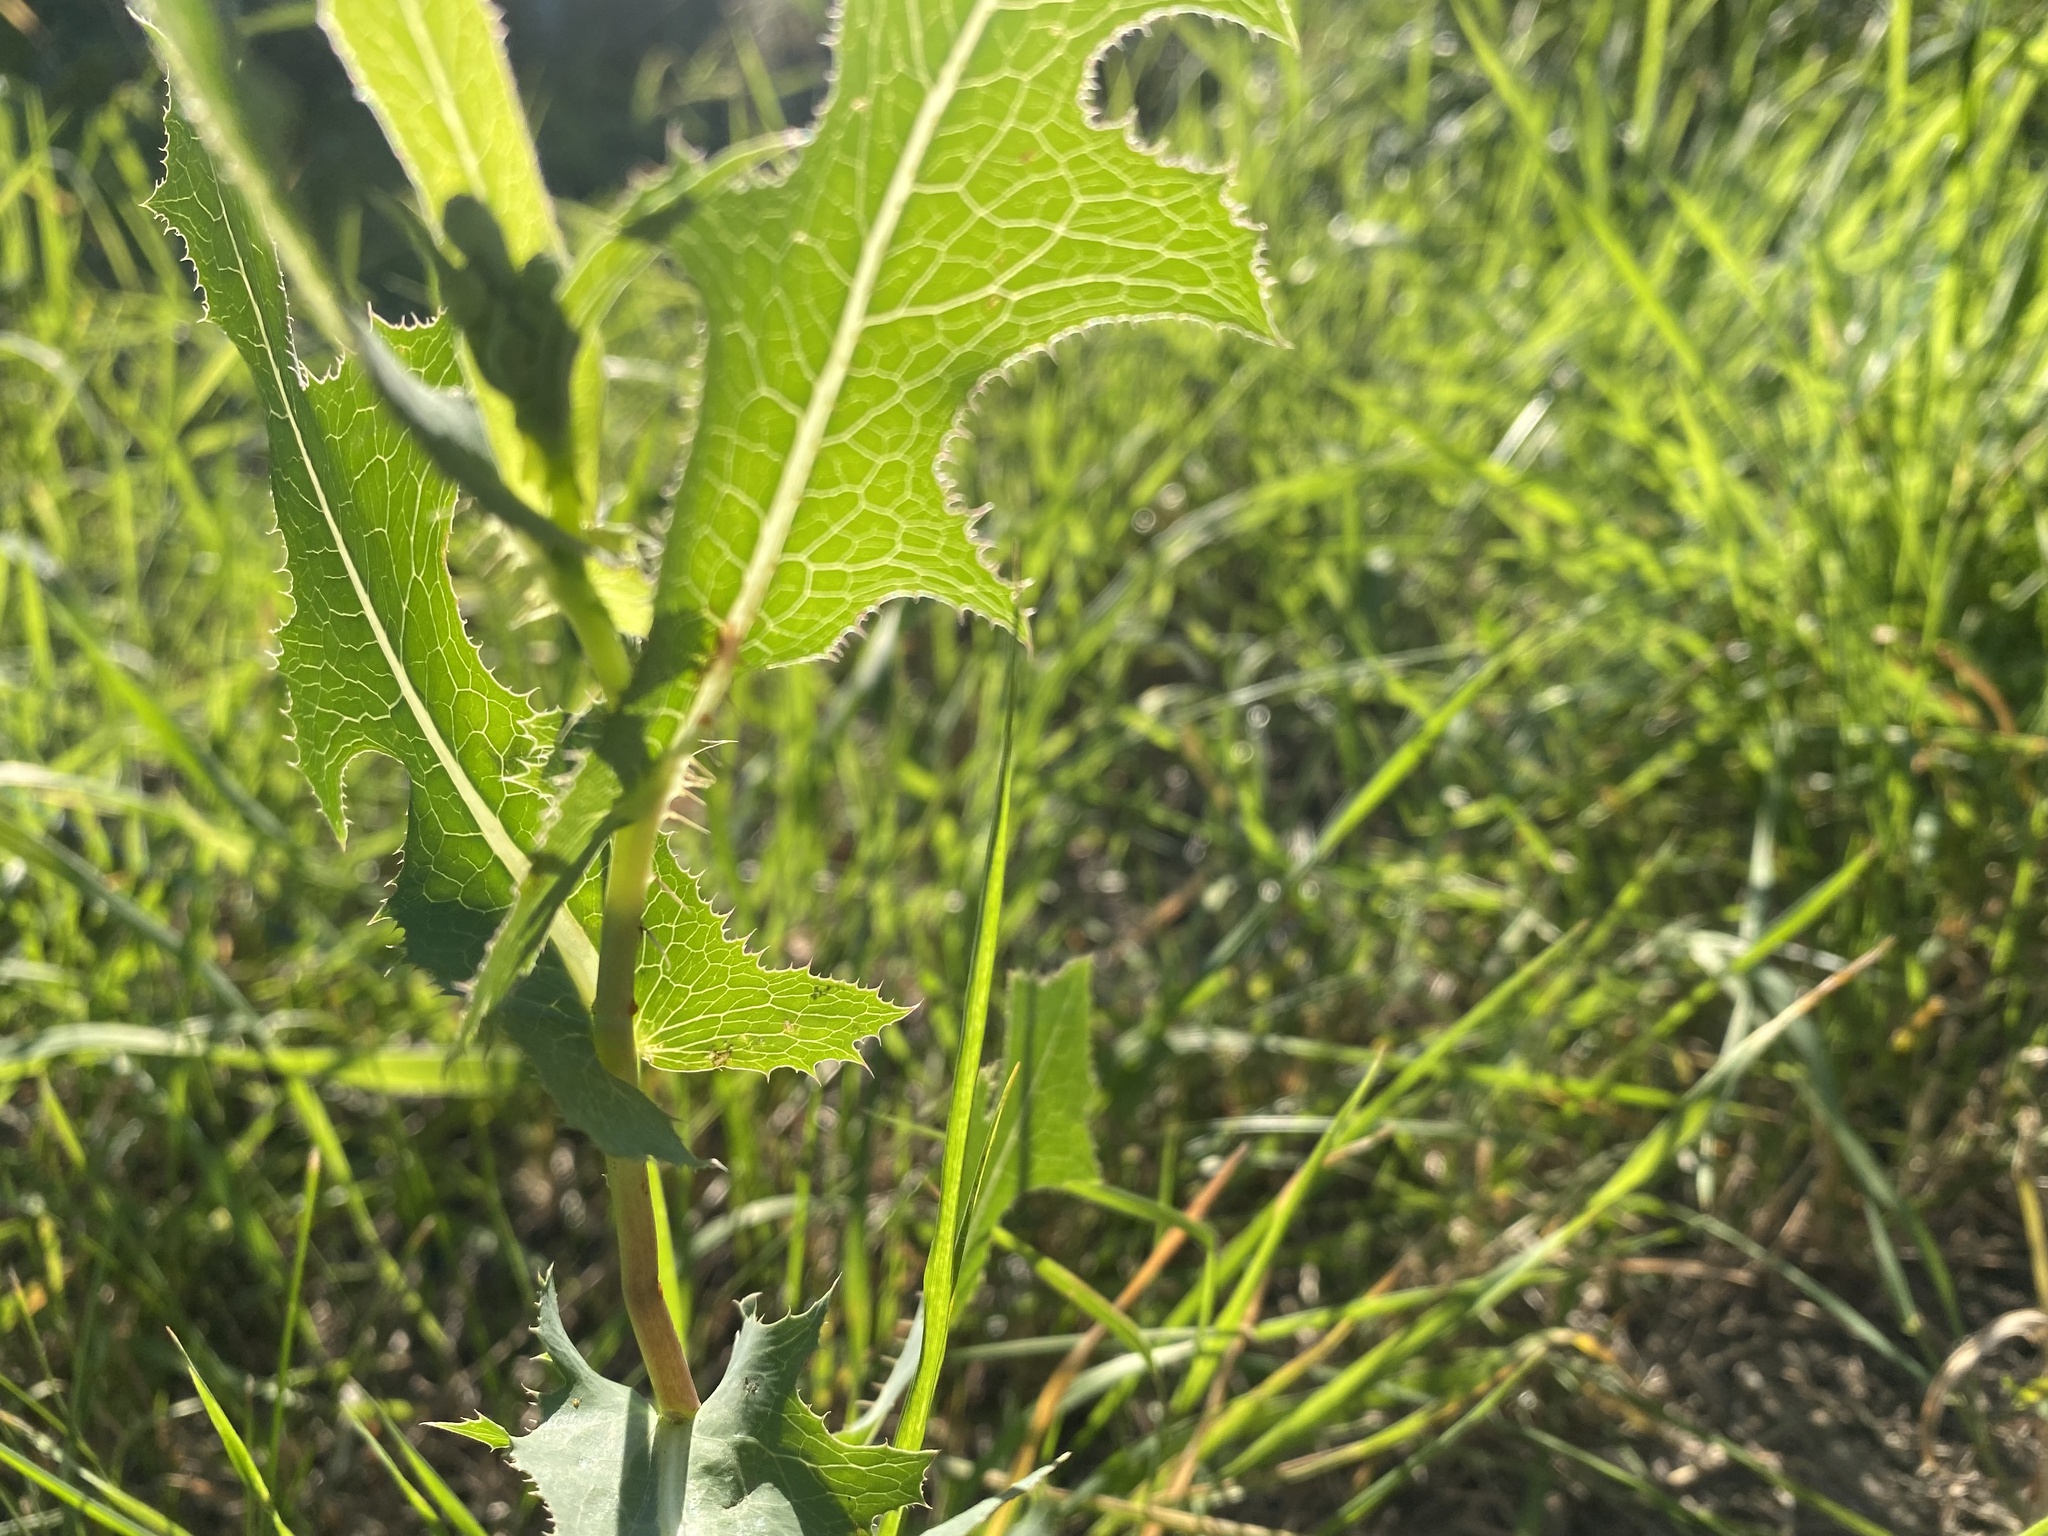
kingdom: Plantae
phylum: Tracheophyta
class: Magnoliopsida
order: Asterales
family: Asteraceae
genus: Lactuca
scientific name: Lactuca serriola
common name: Prickly lettuce
